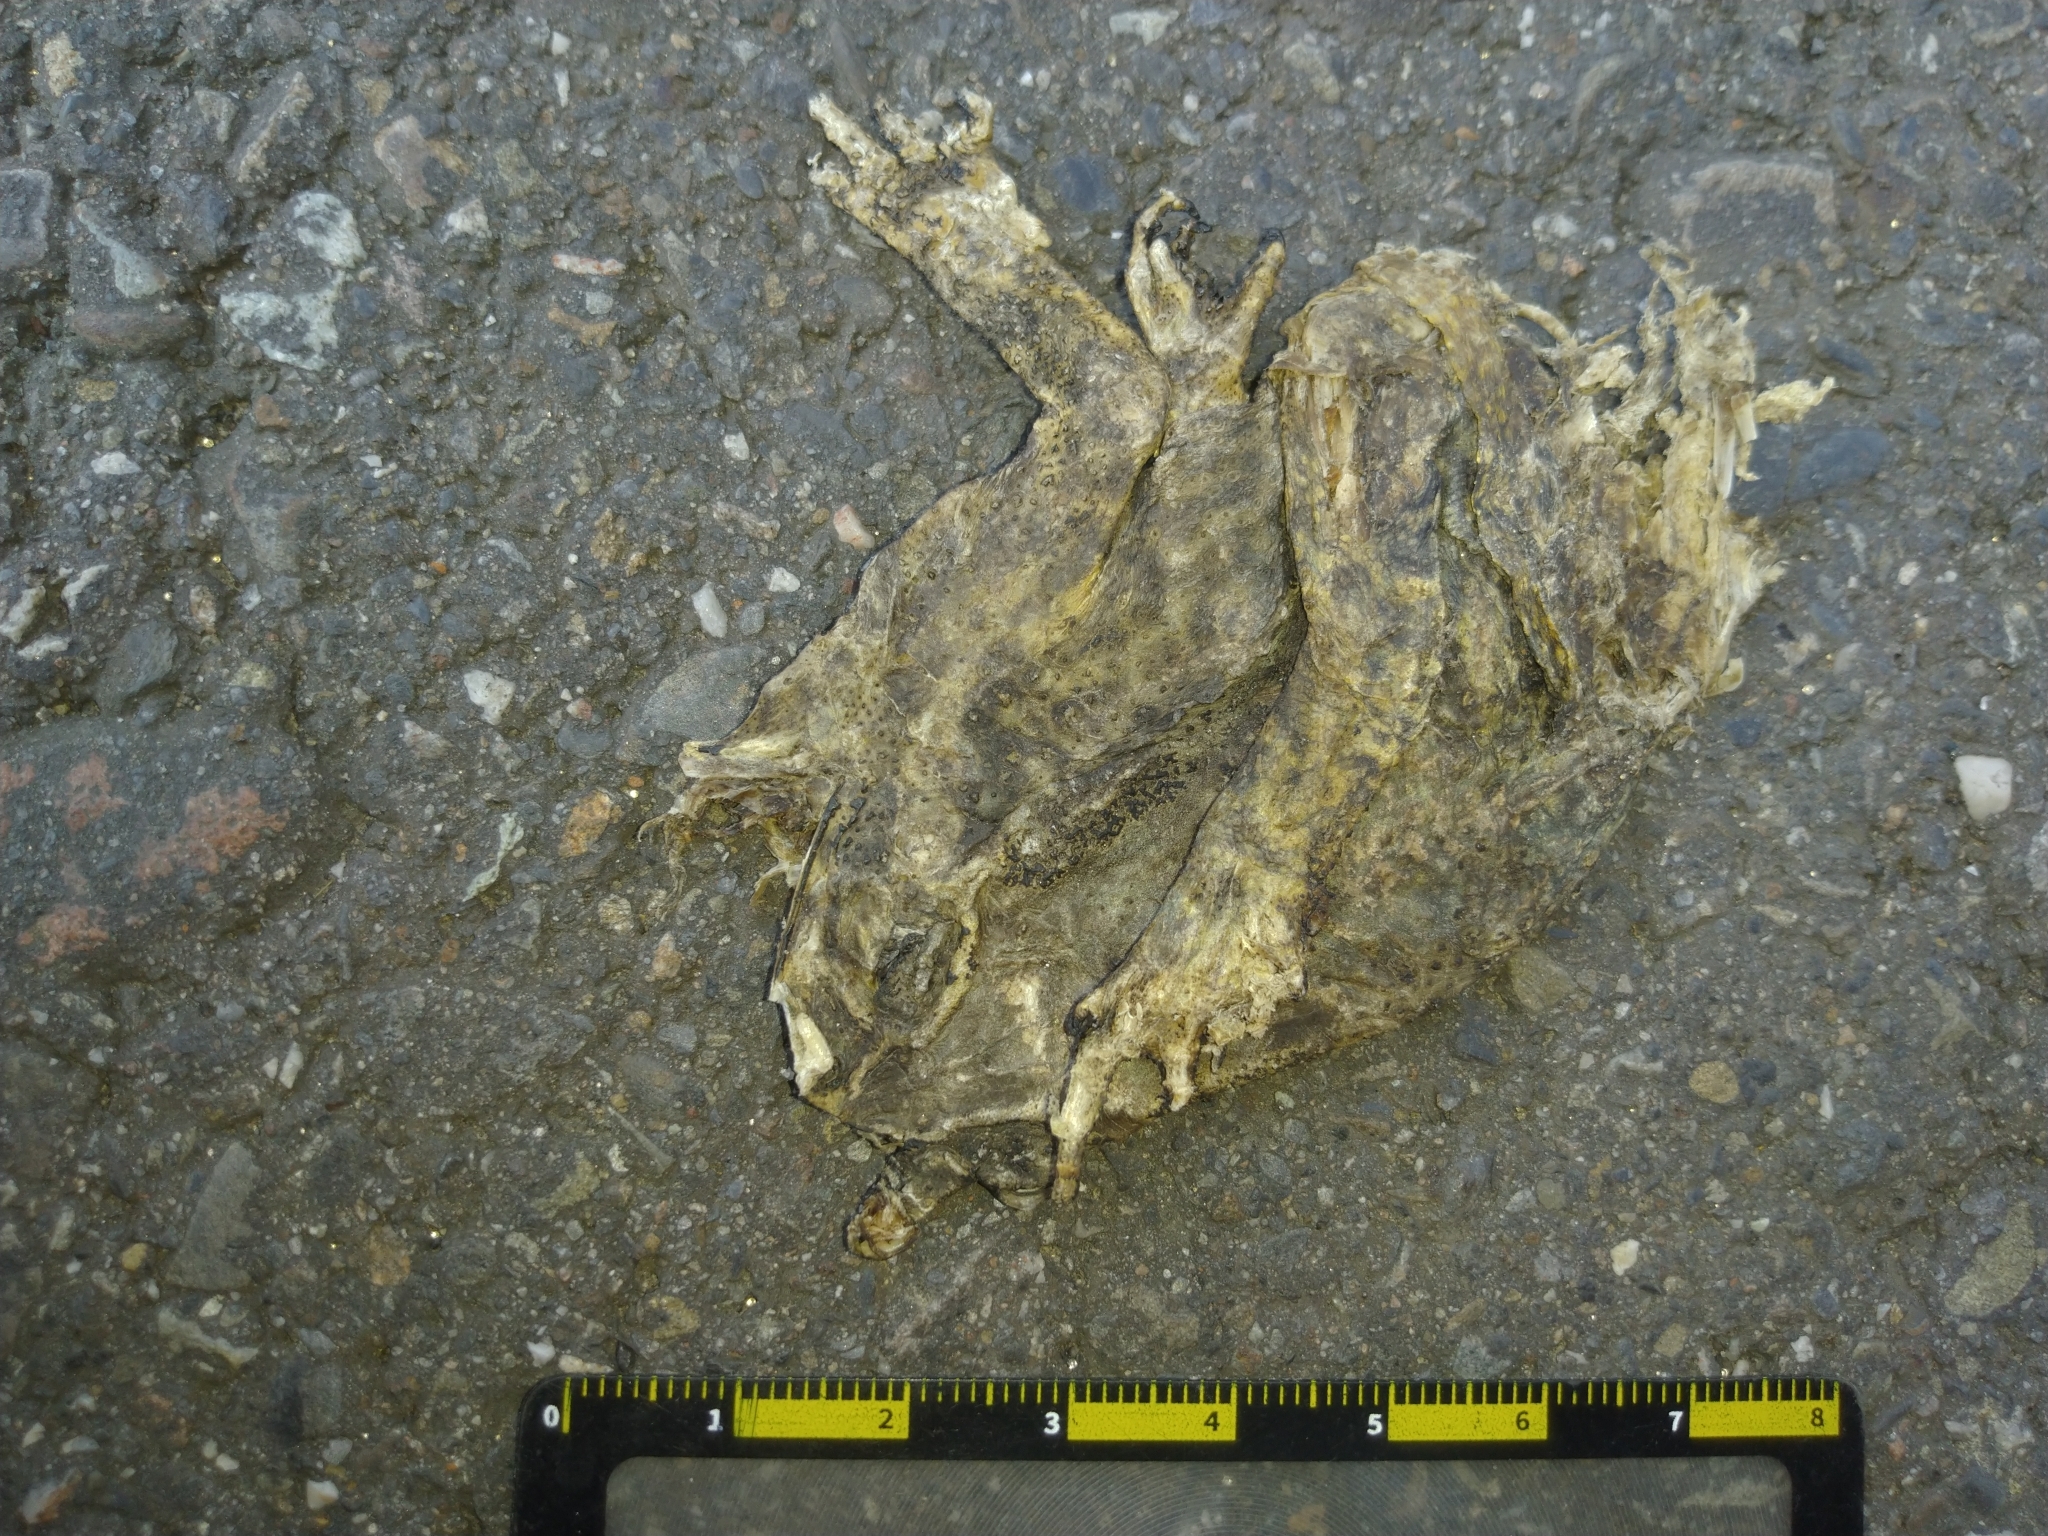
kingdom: Animalia
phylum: Chordata
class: Amphibia
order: Anura
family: Bufonidae
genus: Duttaphrynus
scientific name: Duttaphrynus melanostictus
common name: Common sunda toad
